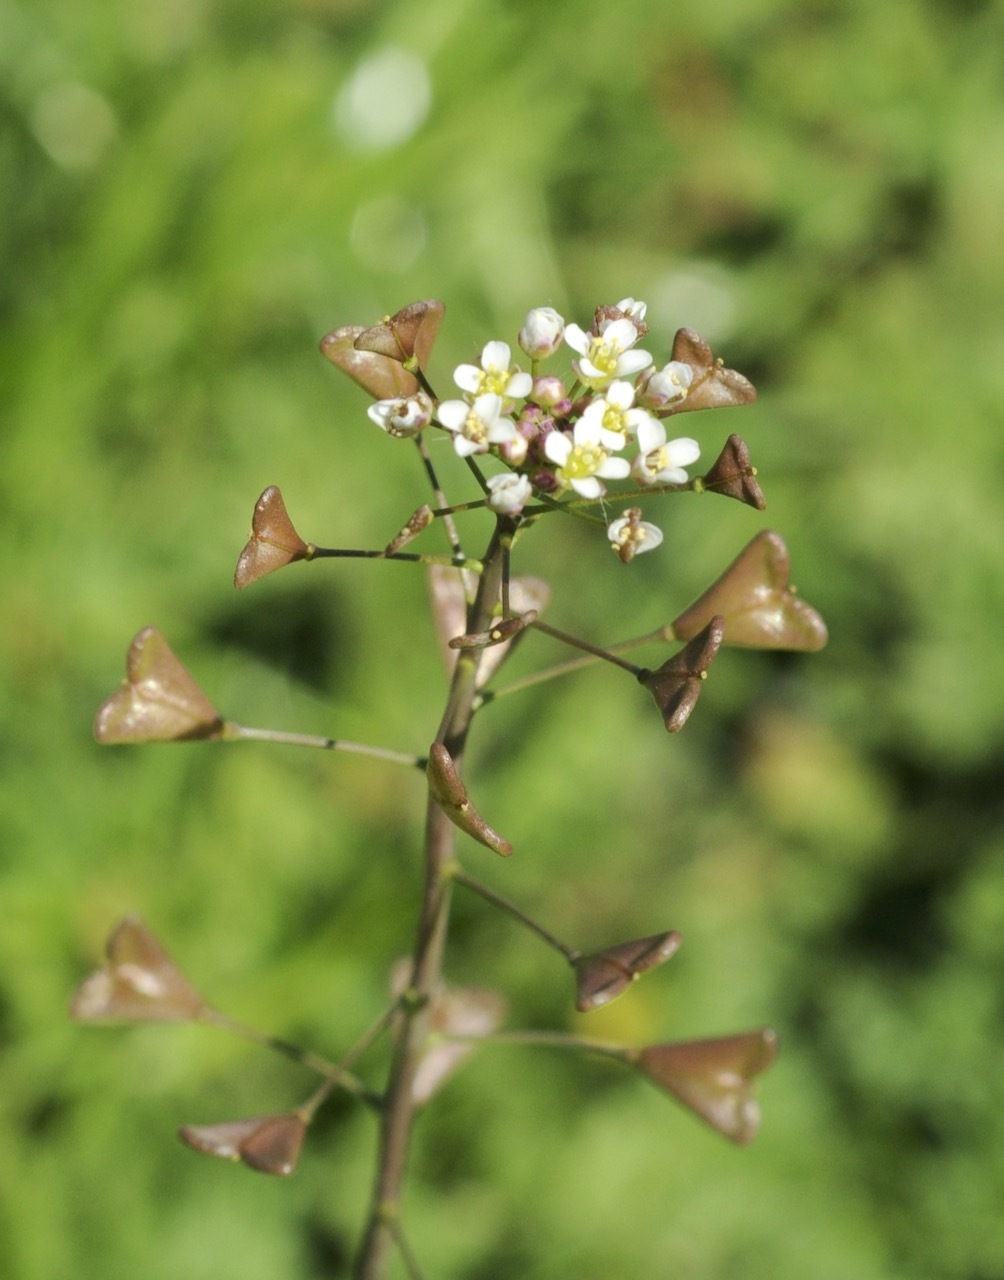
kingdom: Plantae
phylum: Tracheophyta
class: Magnoliopsida
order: Brassicales
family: Brassicaceae
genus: Capsella
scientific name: Capsella bursa-pastoris
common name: Shepherd's purse
